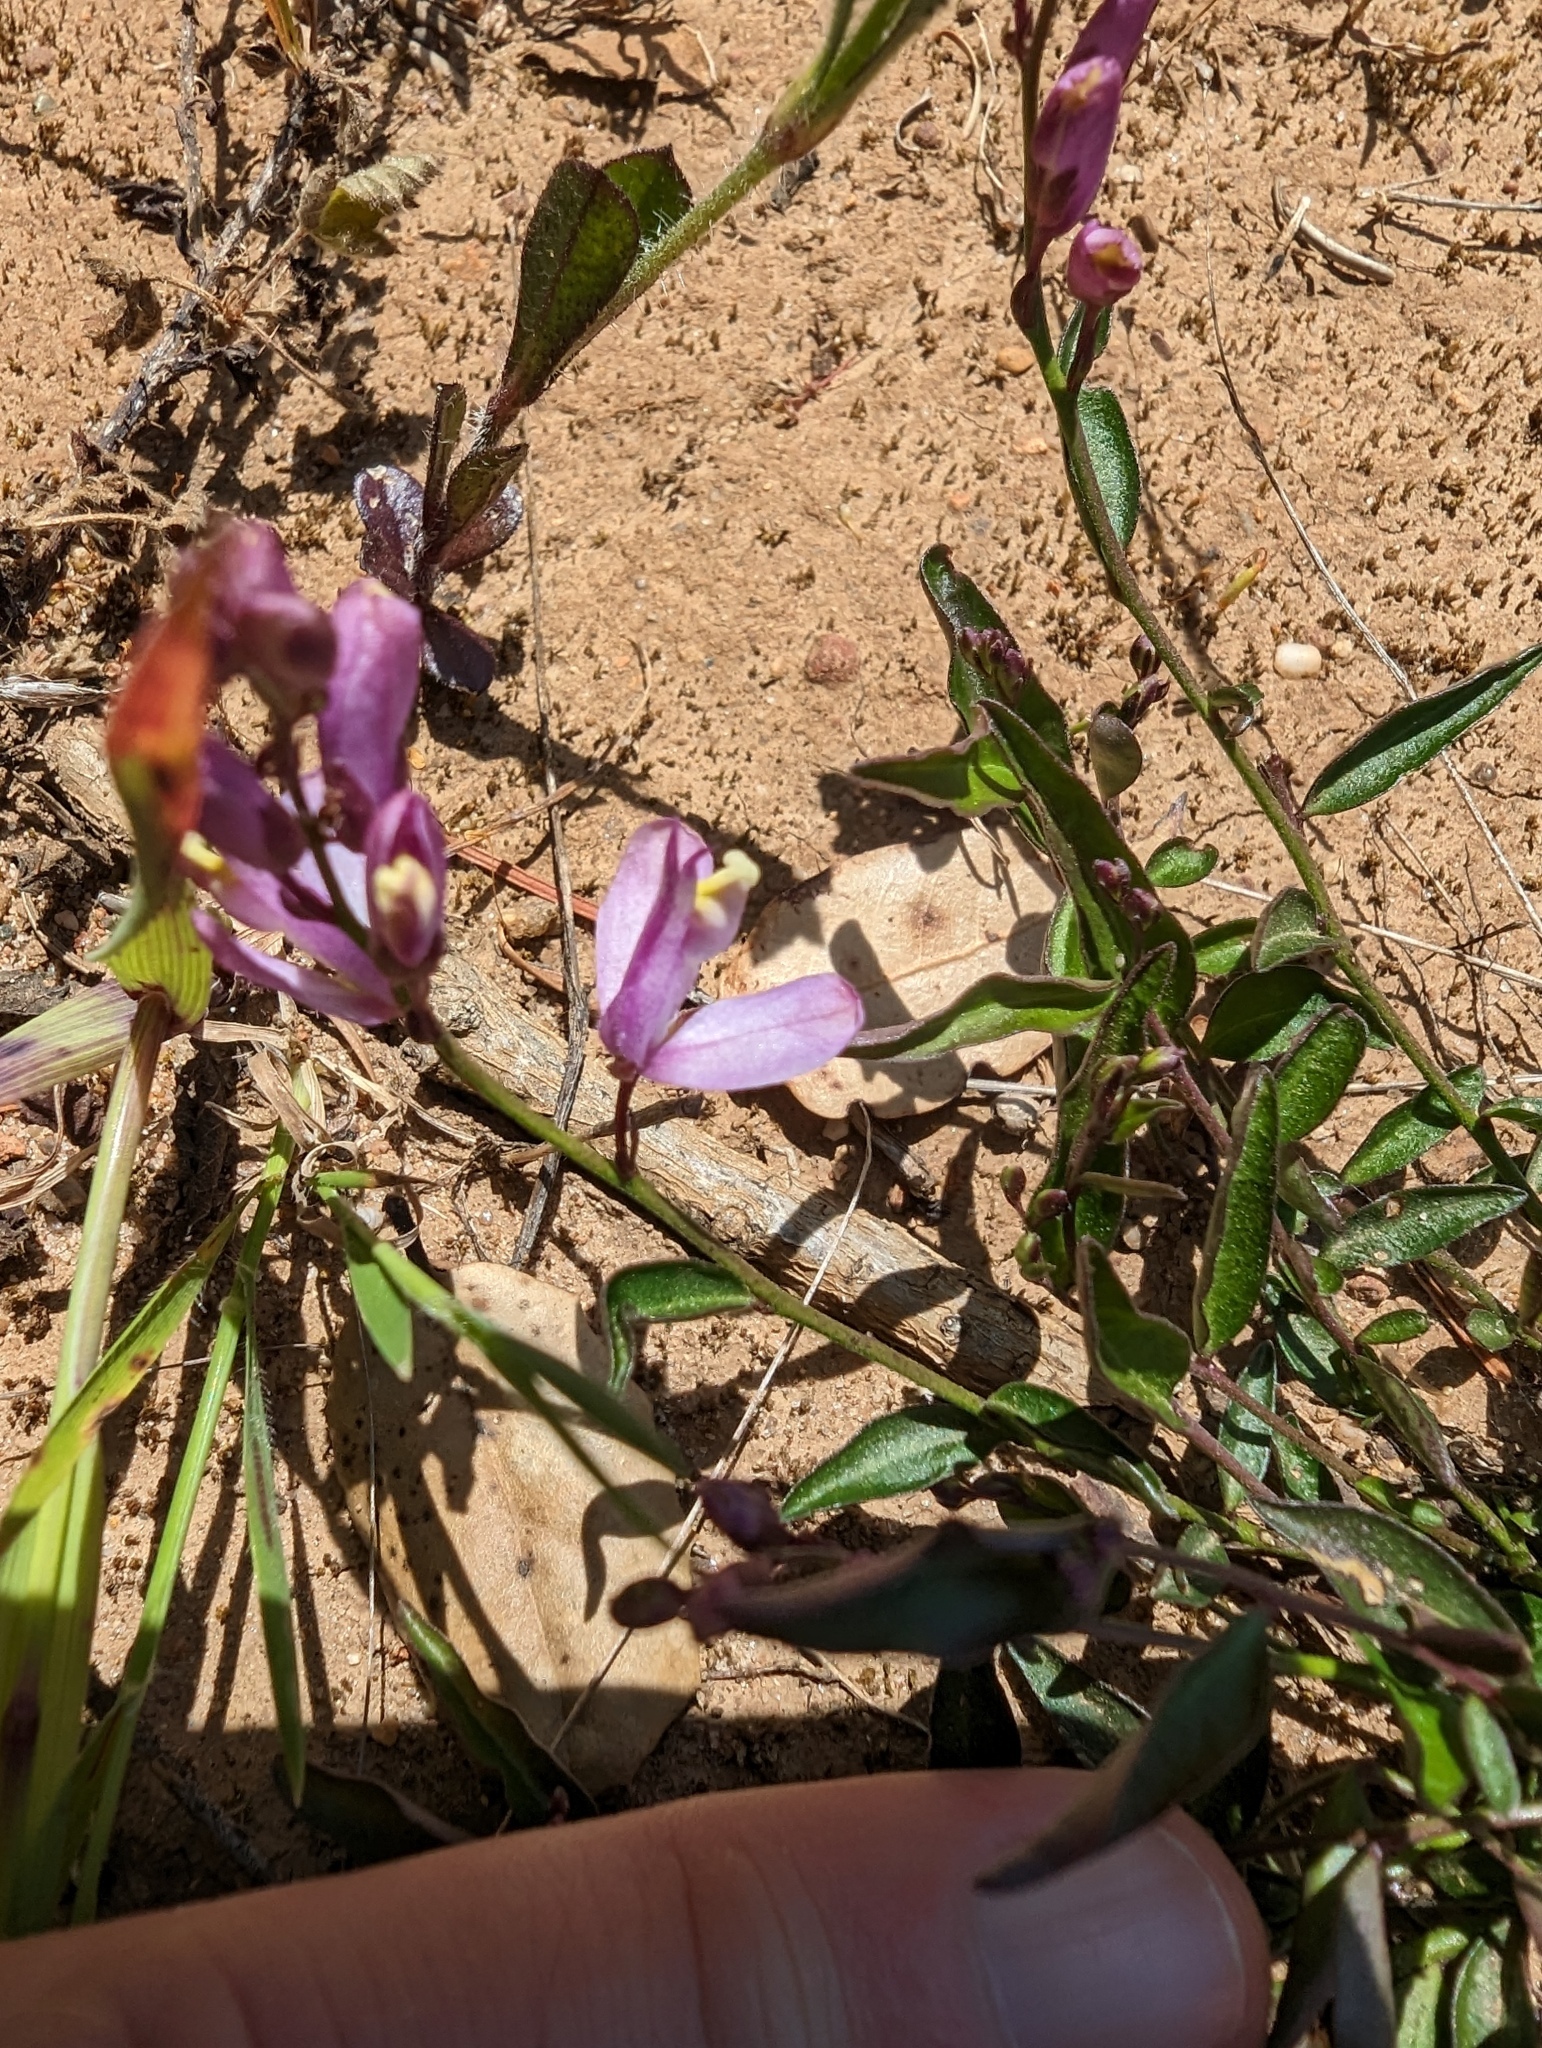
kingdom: Plantae
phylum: Tracheophyta
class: Magnoliopsida
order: Fabales
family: Polygalaceae
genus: Rhinotropis
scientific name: Rhinotropis californica
